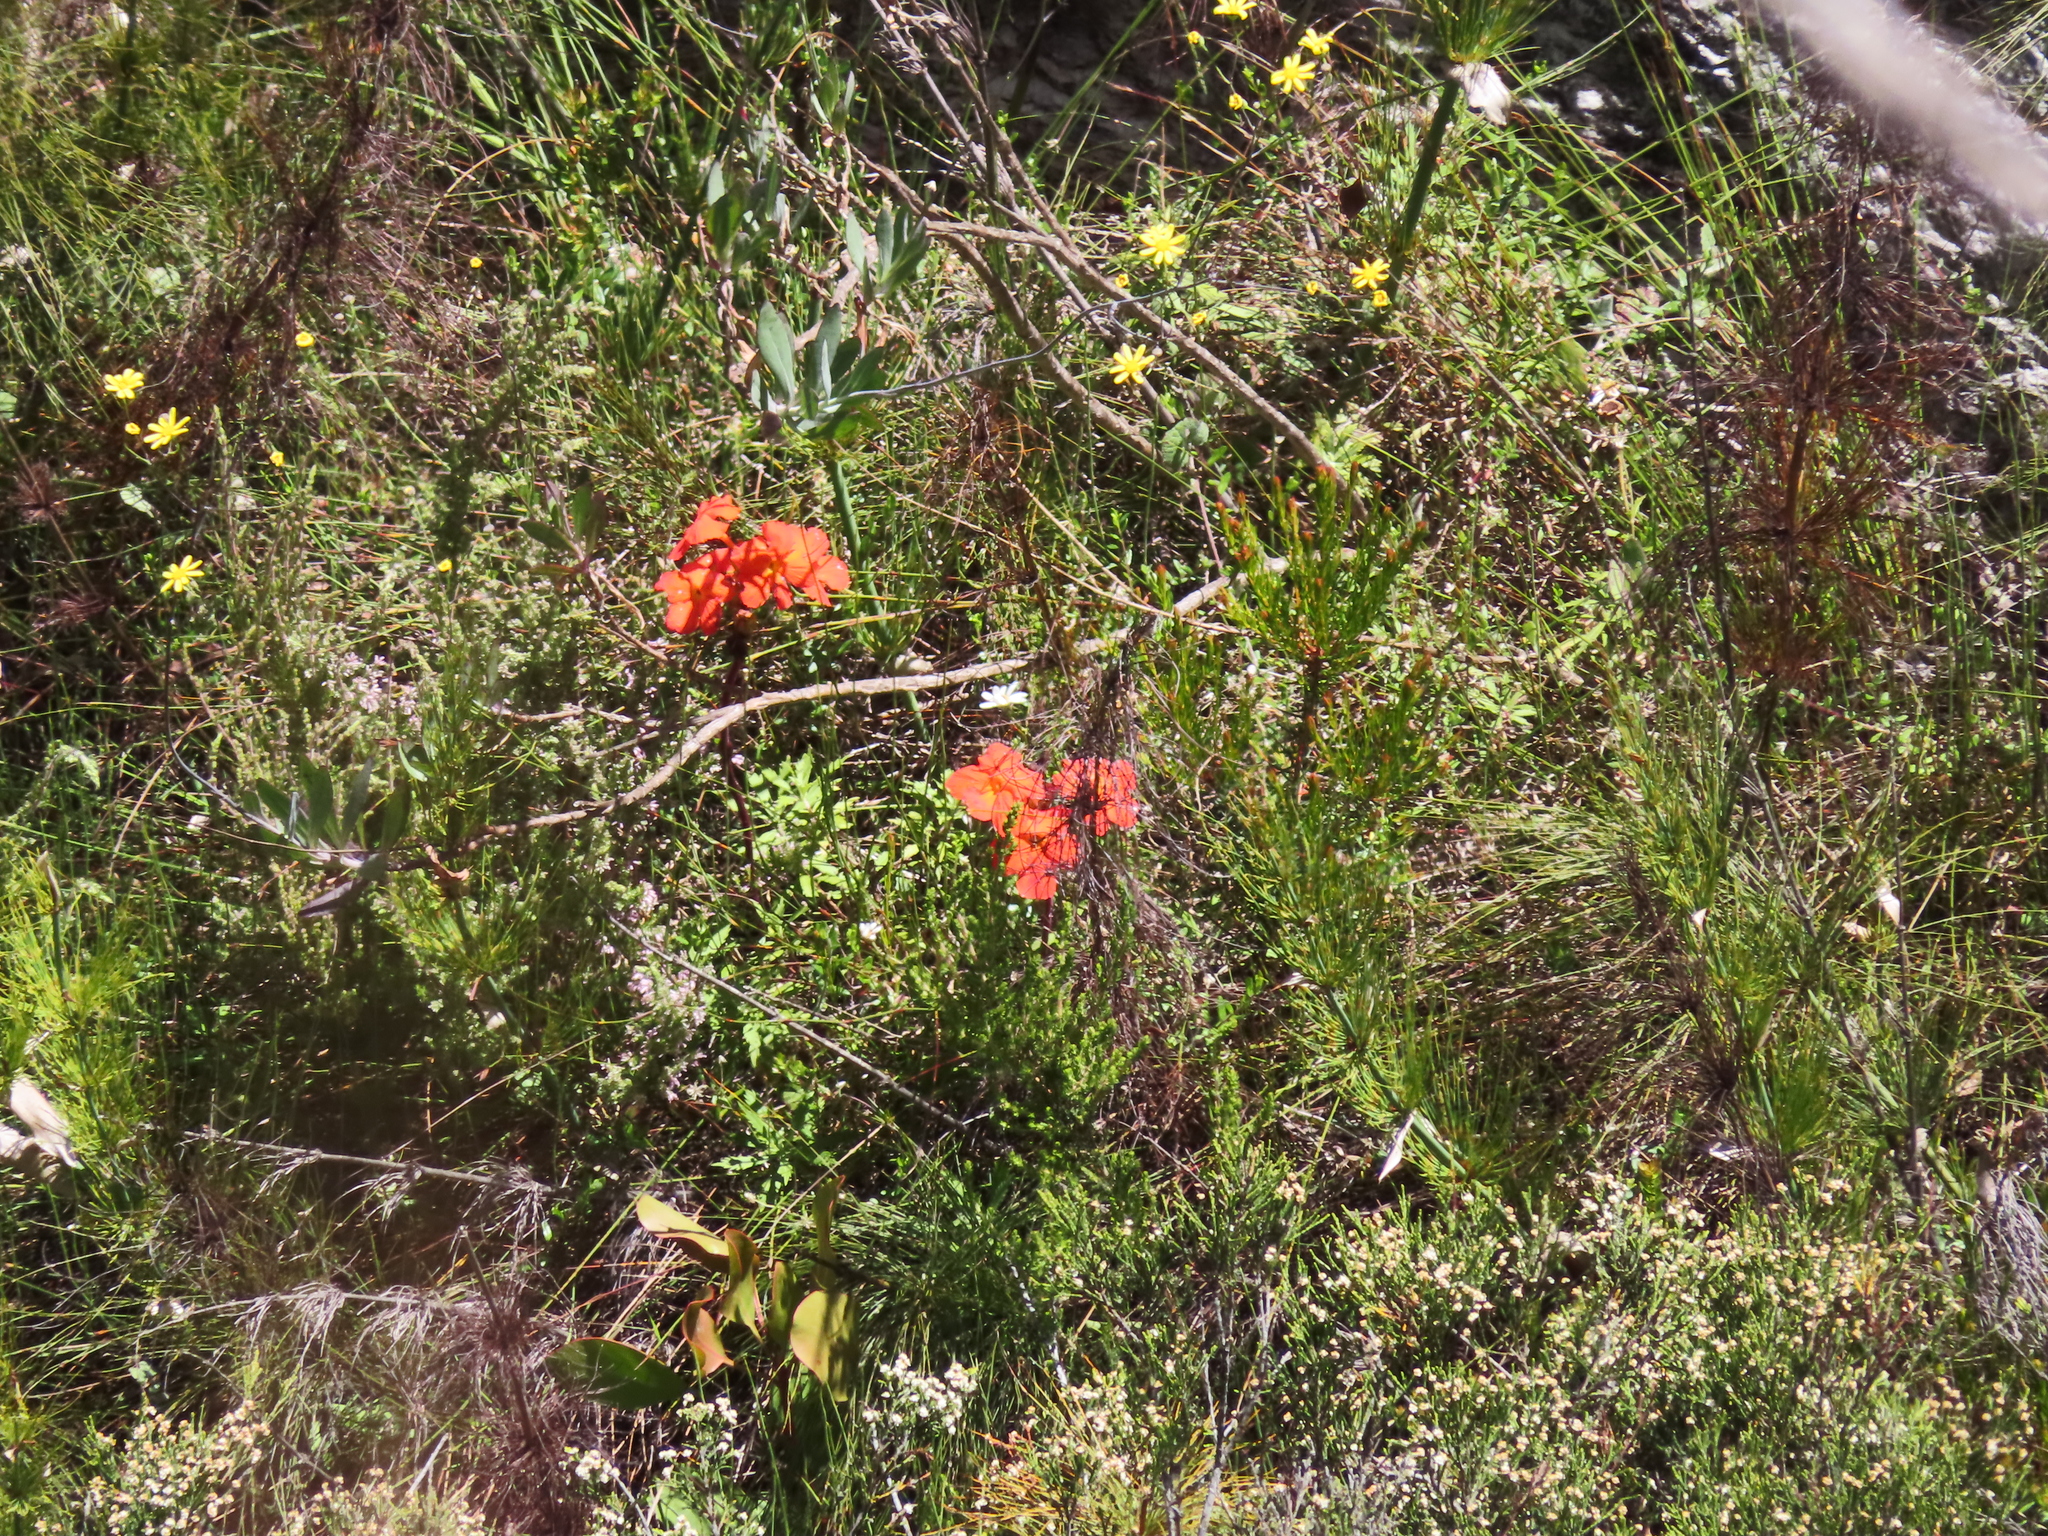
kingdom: Plantae
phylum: Tracheophyta
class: Magnoliopsida
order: Lamiales
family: Orobanchaceae
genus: Harveya
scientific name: Harveya stenosiphon
